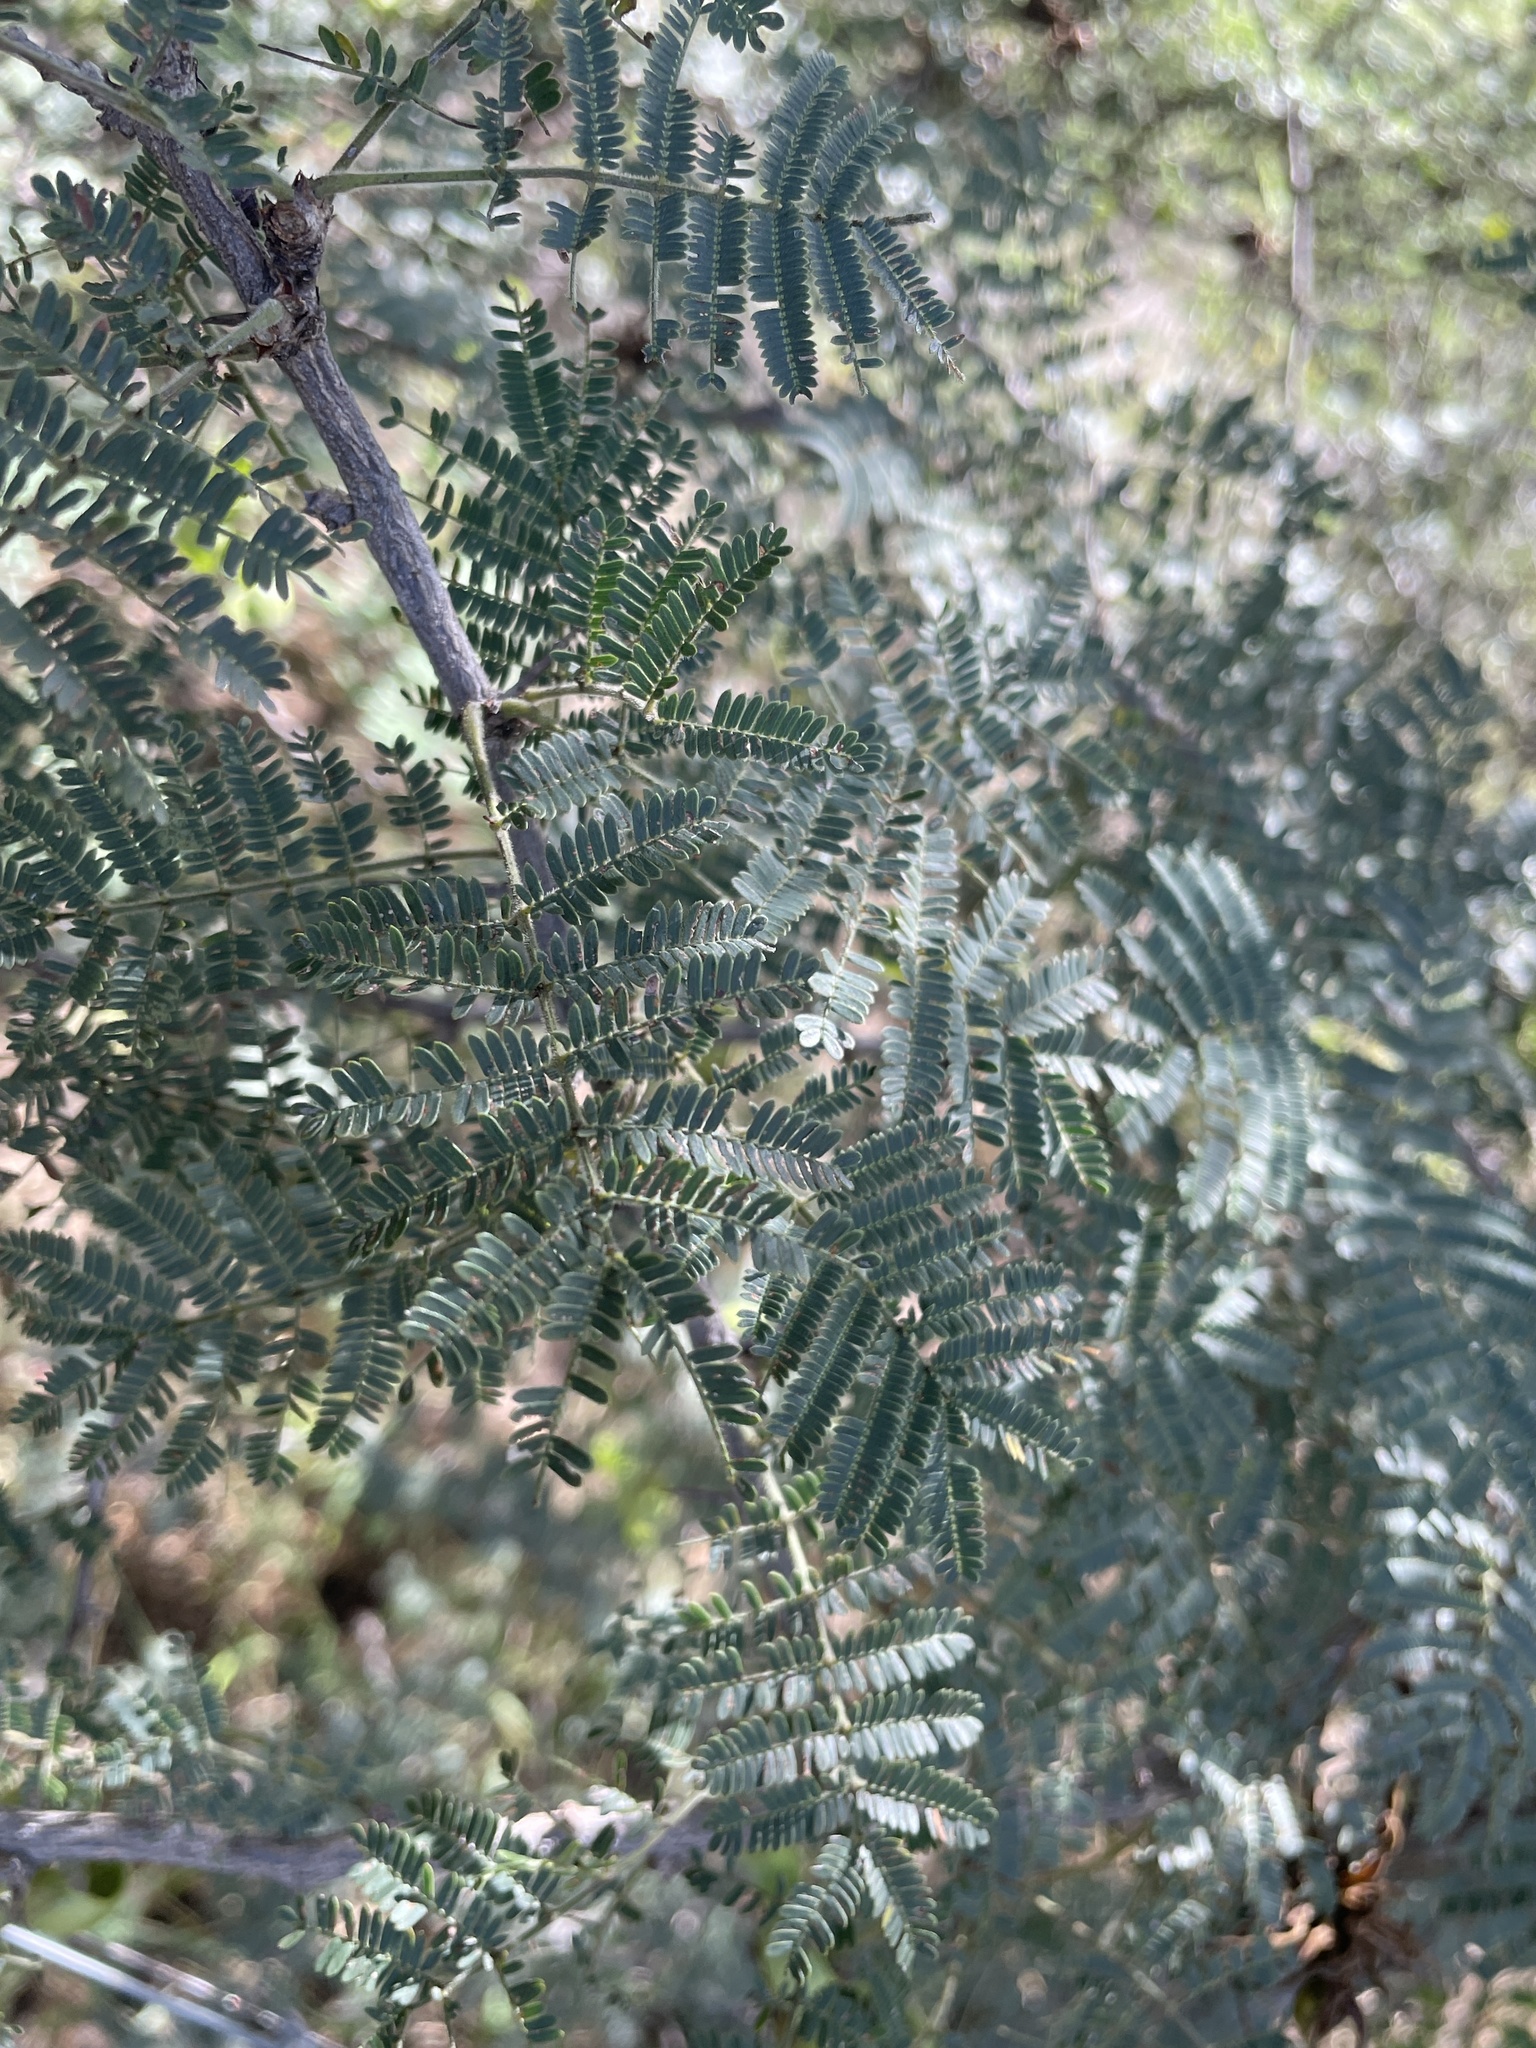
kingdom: Plantae
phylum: Tracheophyta
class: Magnoliopsida
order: Fabales
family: Fabaceae
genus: Dichrostachys
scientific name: Dichrostachys cinerea
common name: Sicklebush
